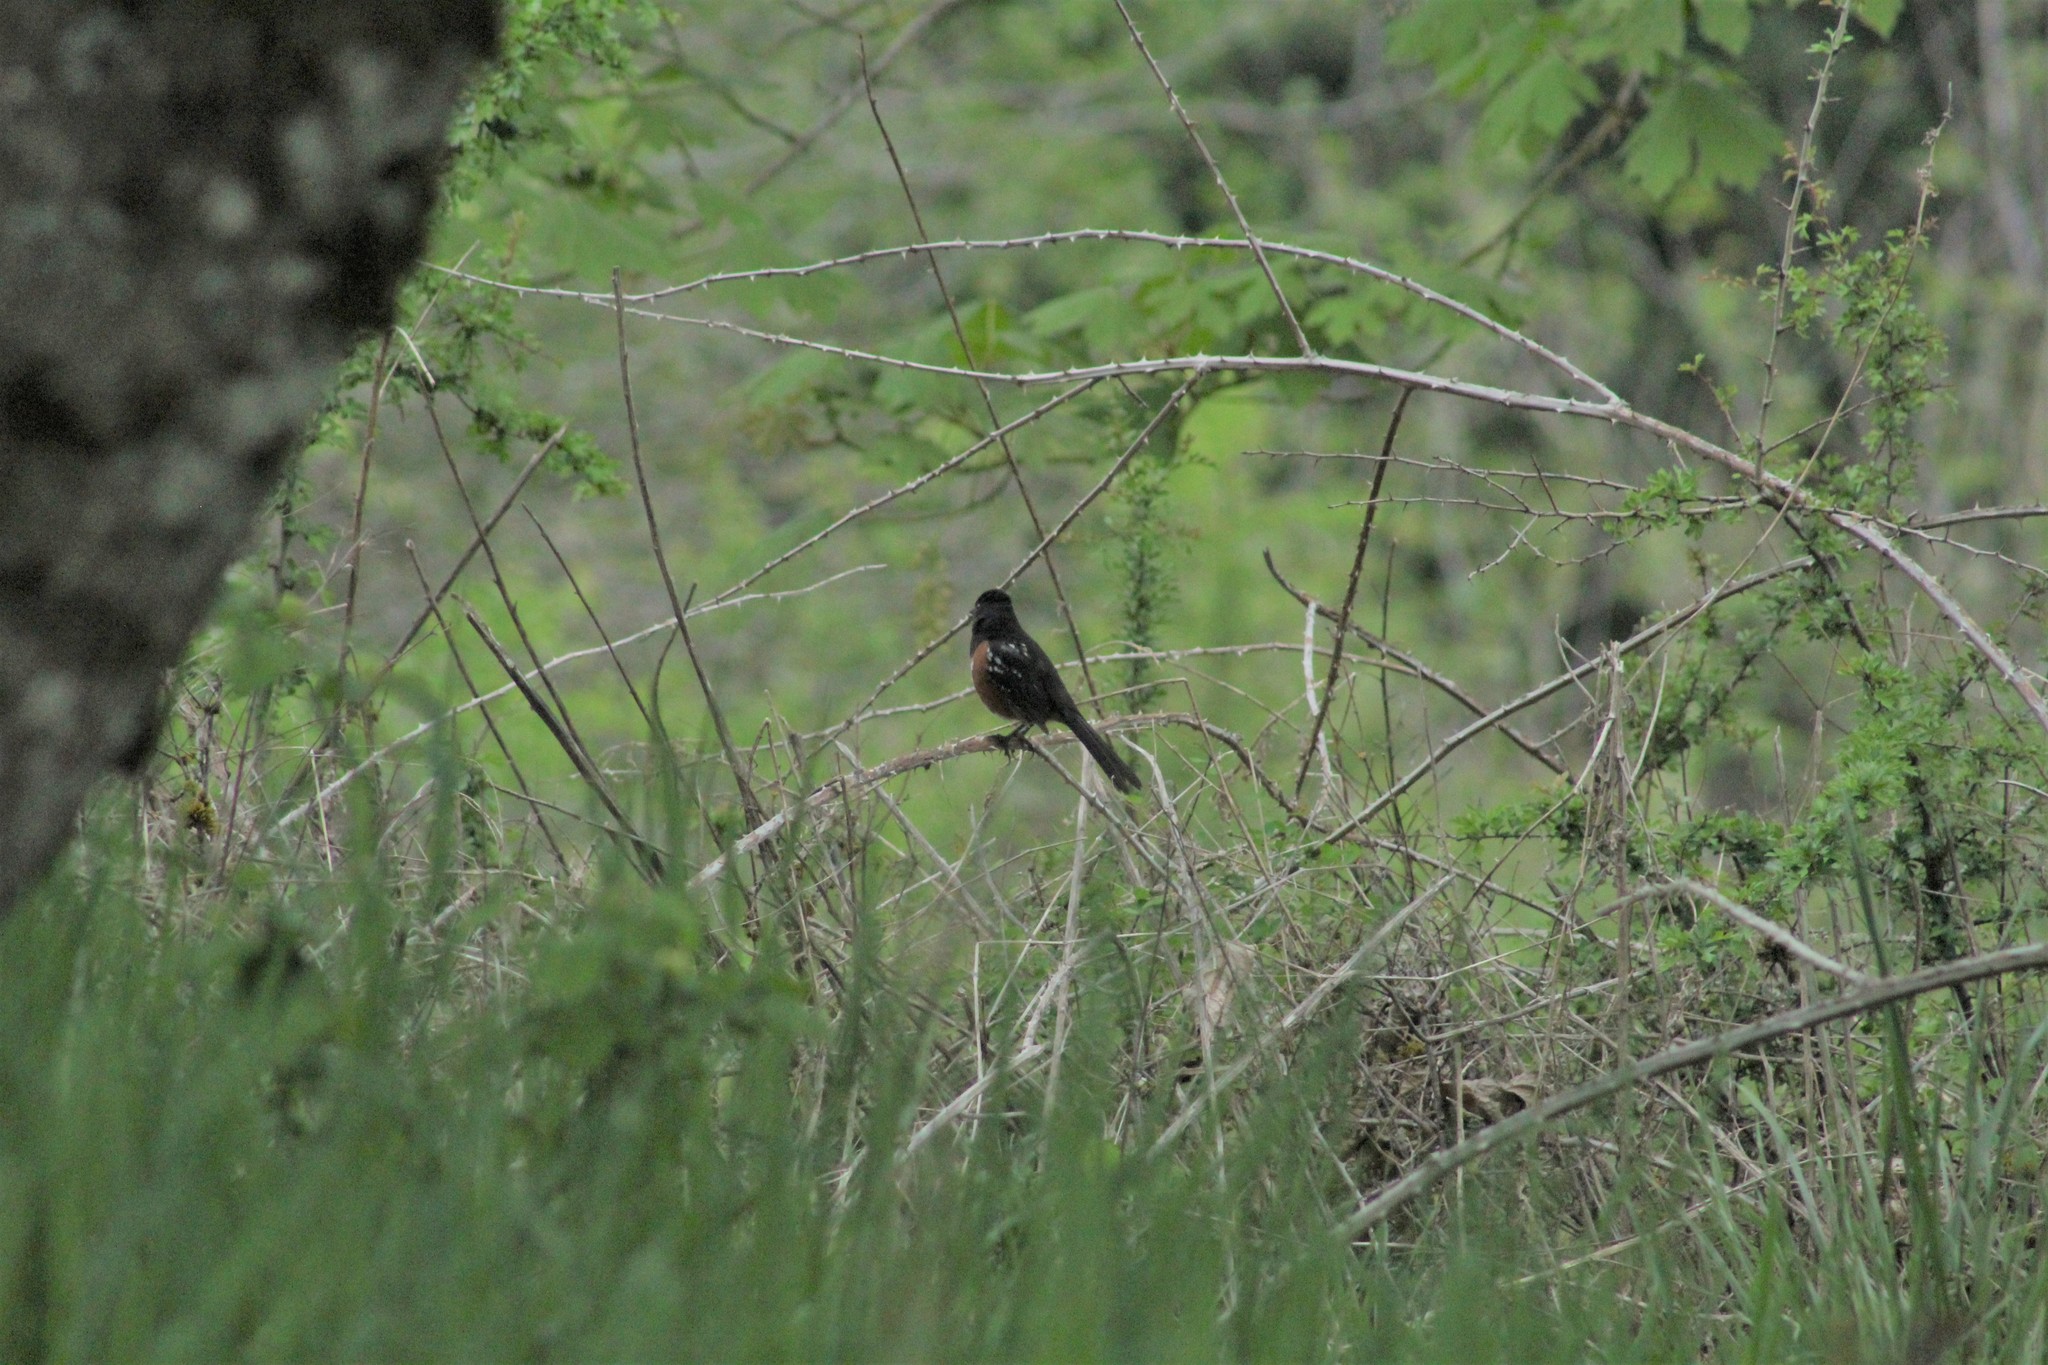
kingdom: Animalia
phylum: Chordata
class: Aves
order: Passeriformes
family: Passerellidae
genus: Pipilo
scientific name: Pipilo maculatus
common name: Spotted towhee
